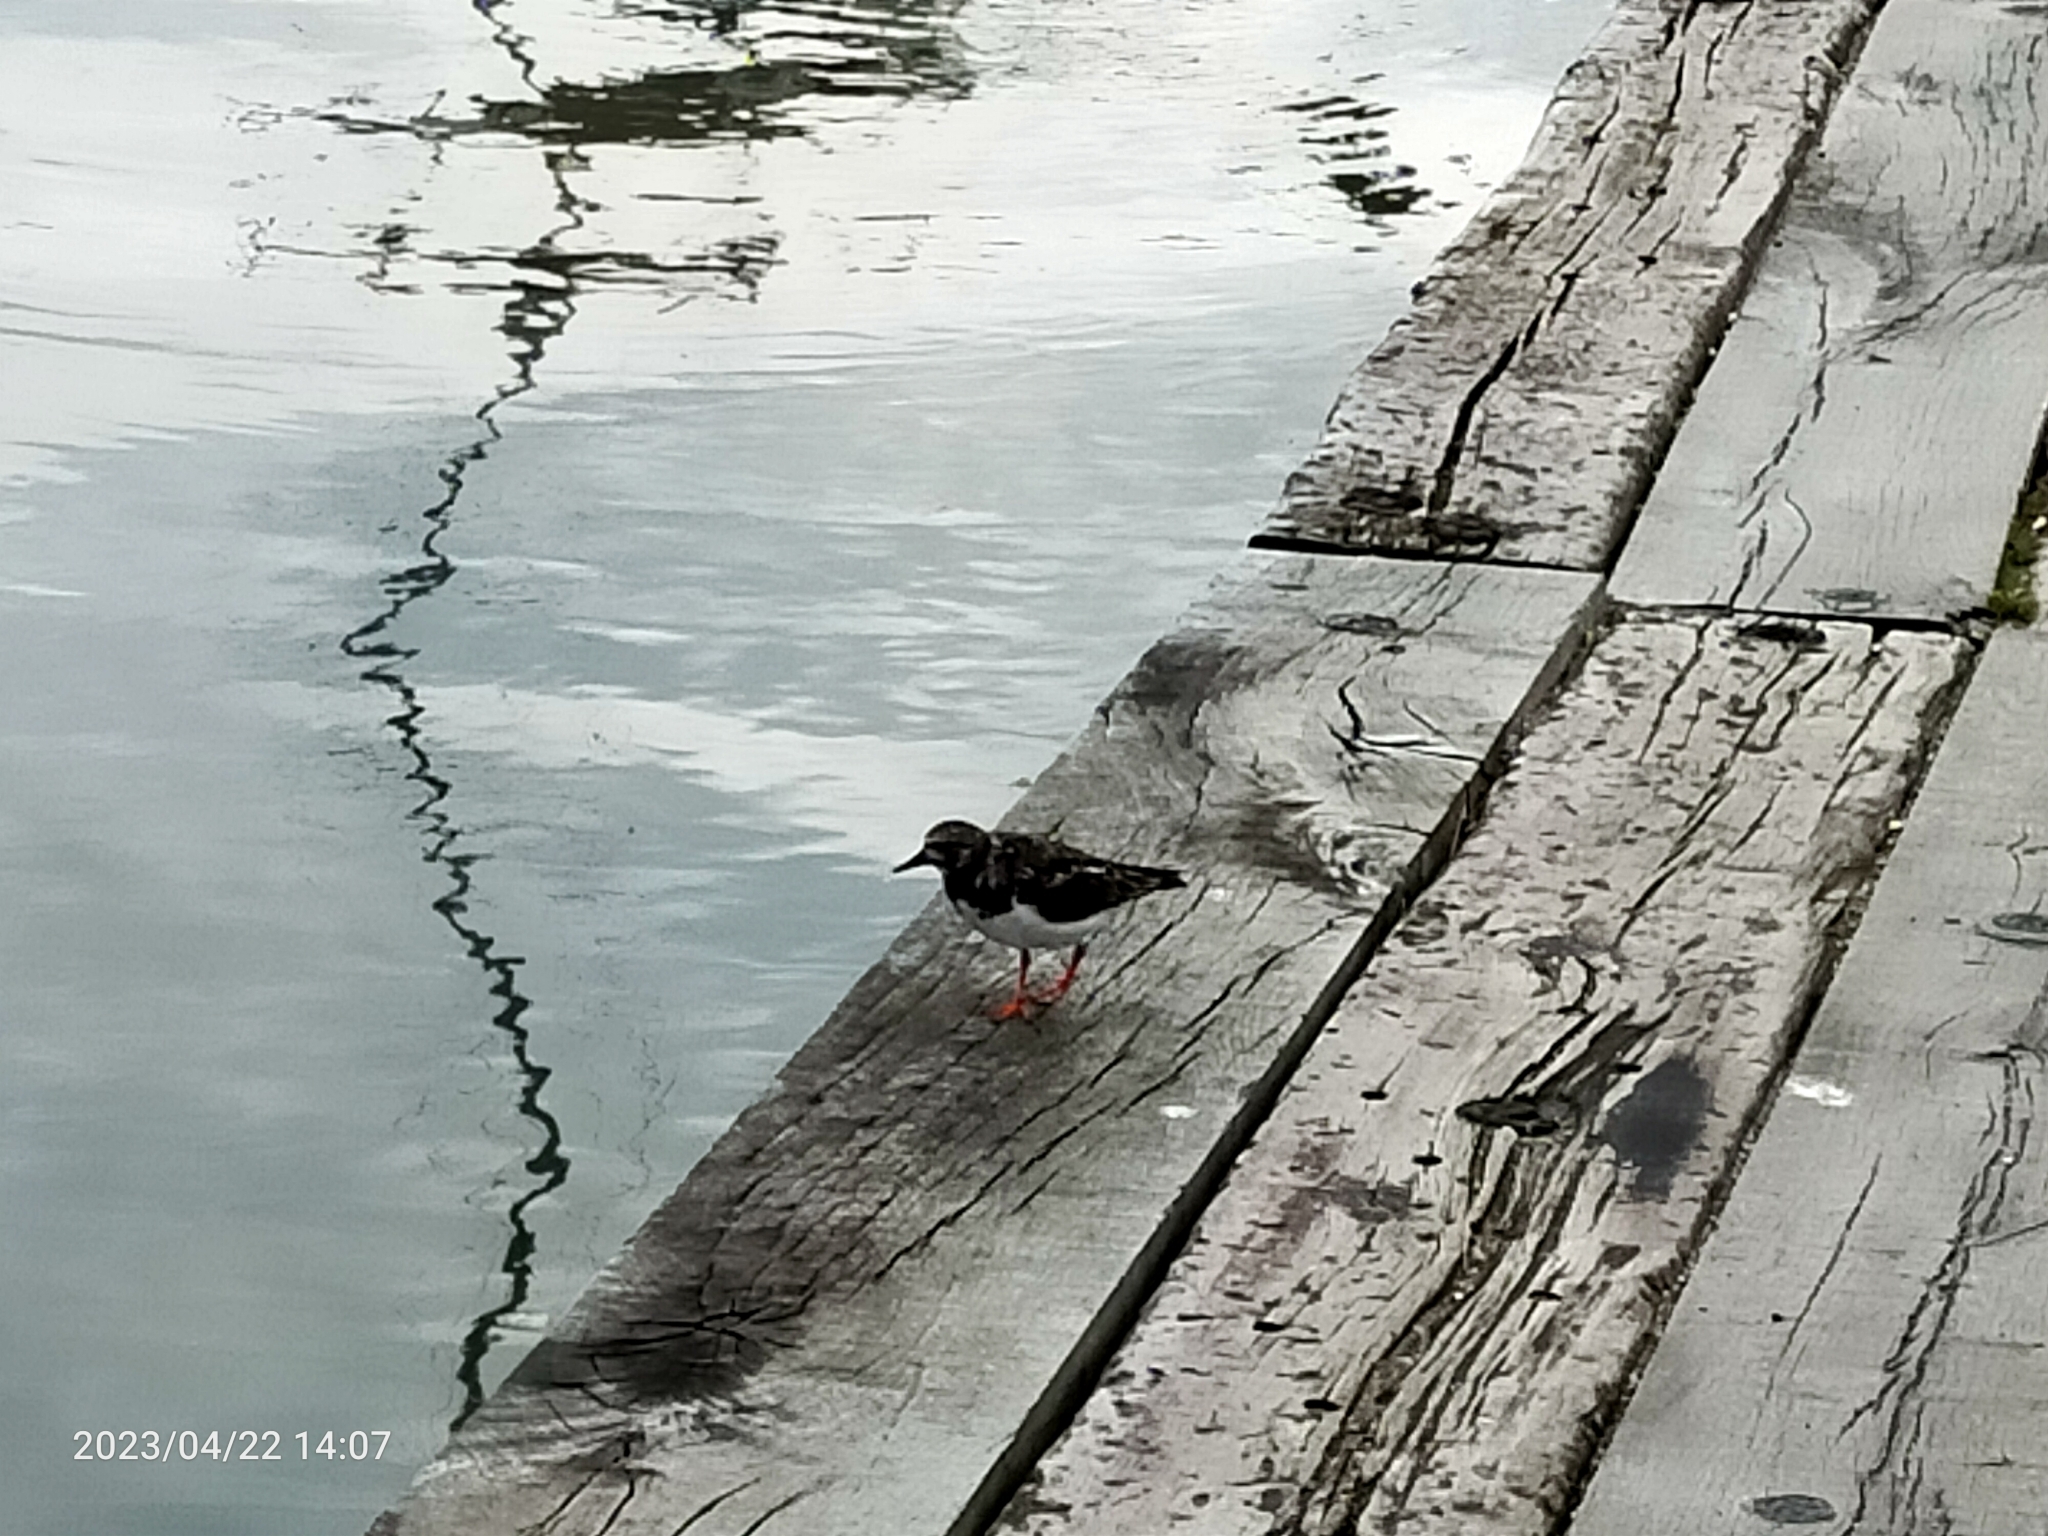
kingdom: Animalia
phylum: Chordata
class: Aves
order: Charadriiformes
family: Scolopacidae
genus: Arenaria
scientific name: Arenaria interpres
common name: Ruddy turnstone
